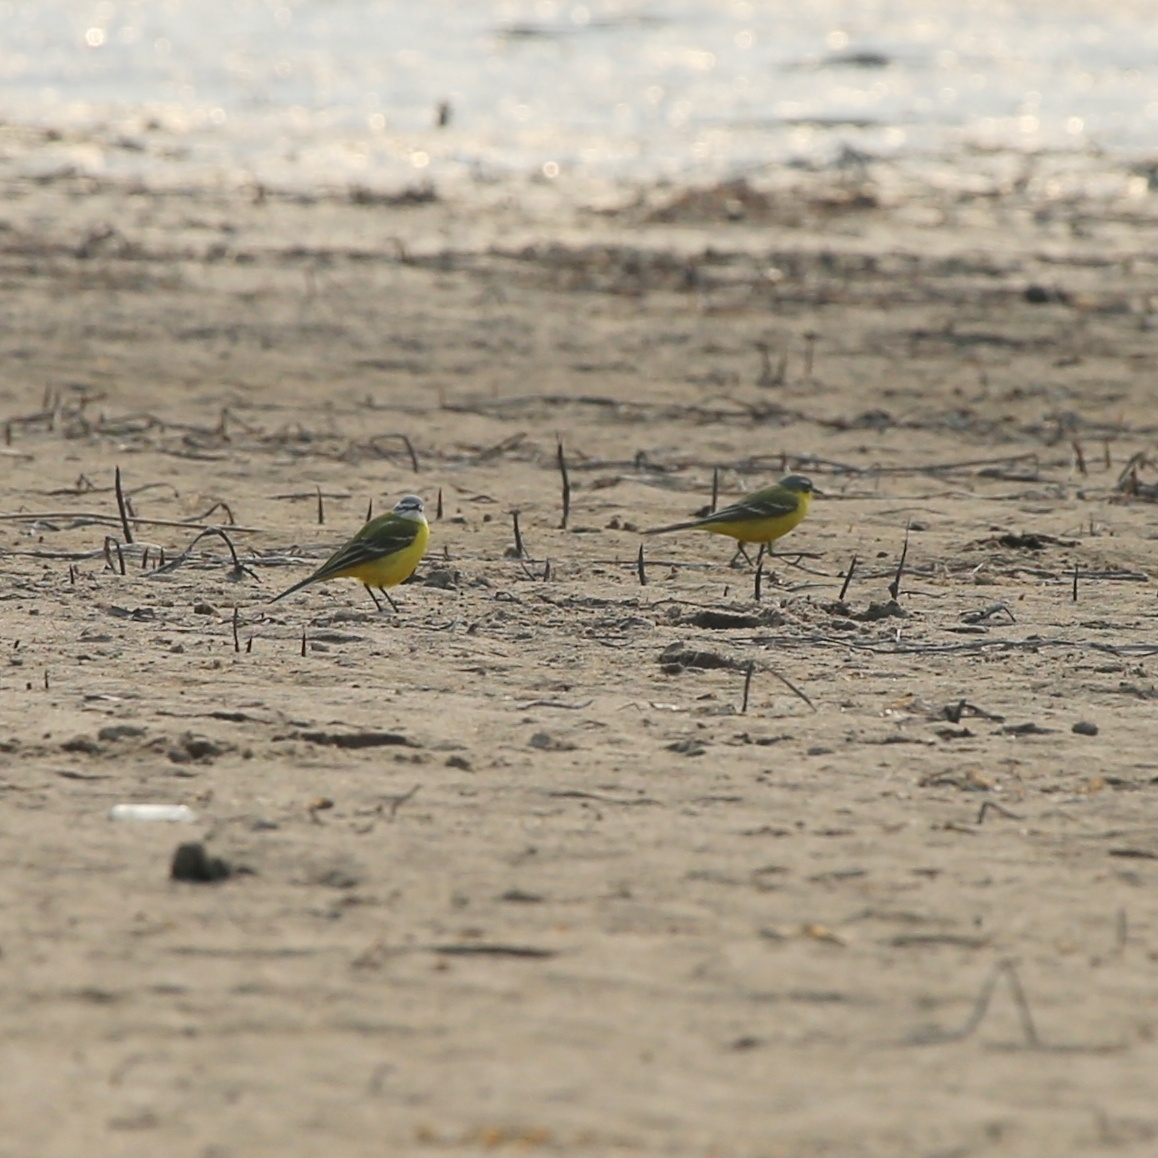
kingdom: Animalia
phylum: Chordata
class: Aves
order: Passeriformes
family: Motacillidae
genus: Motacilla
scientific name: Motacilla flava
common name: Western yellow wagtail
